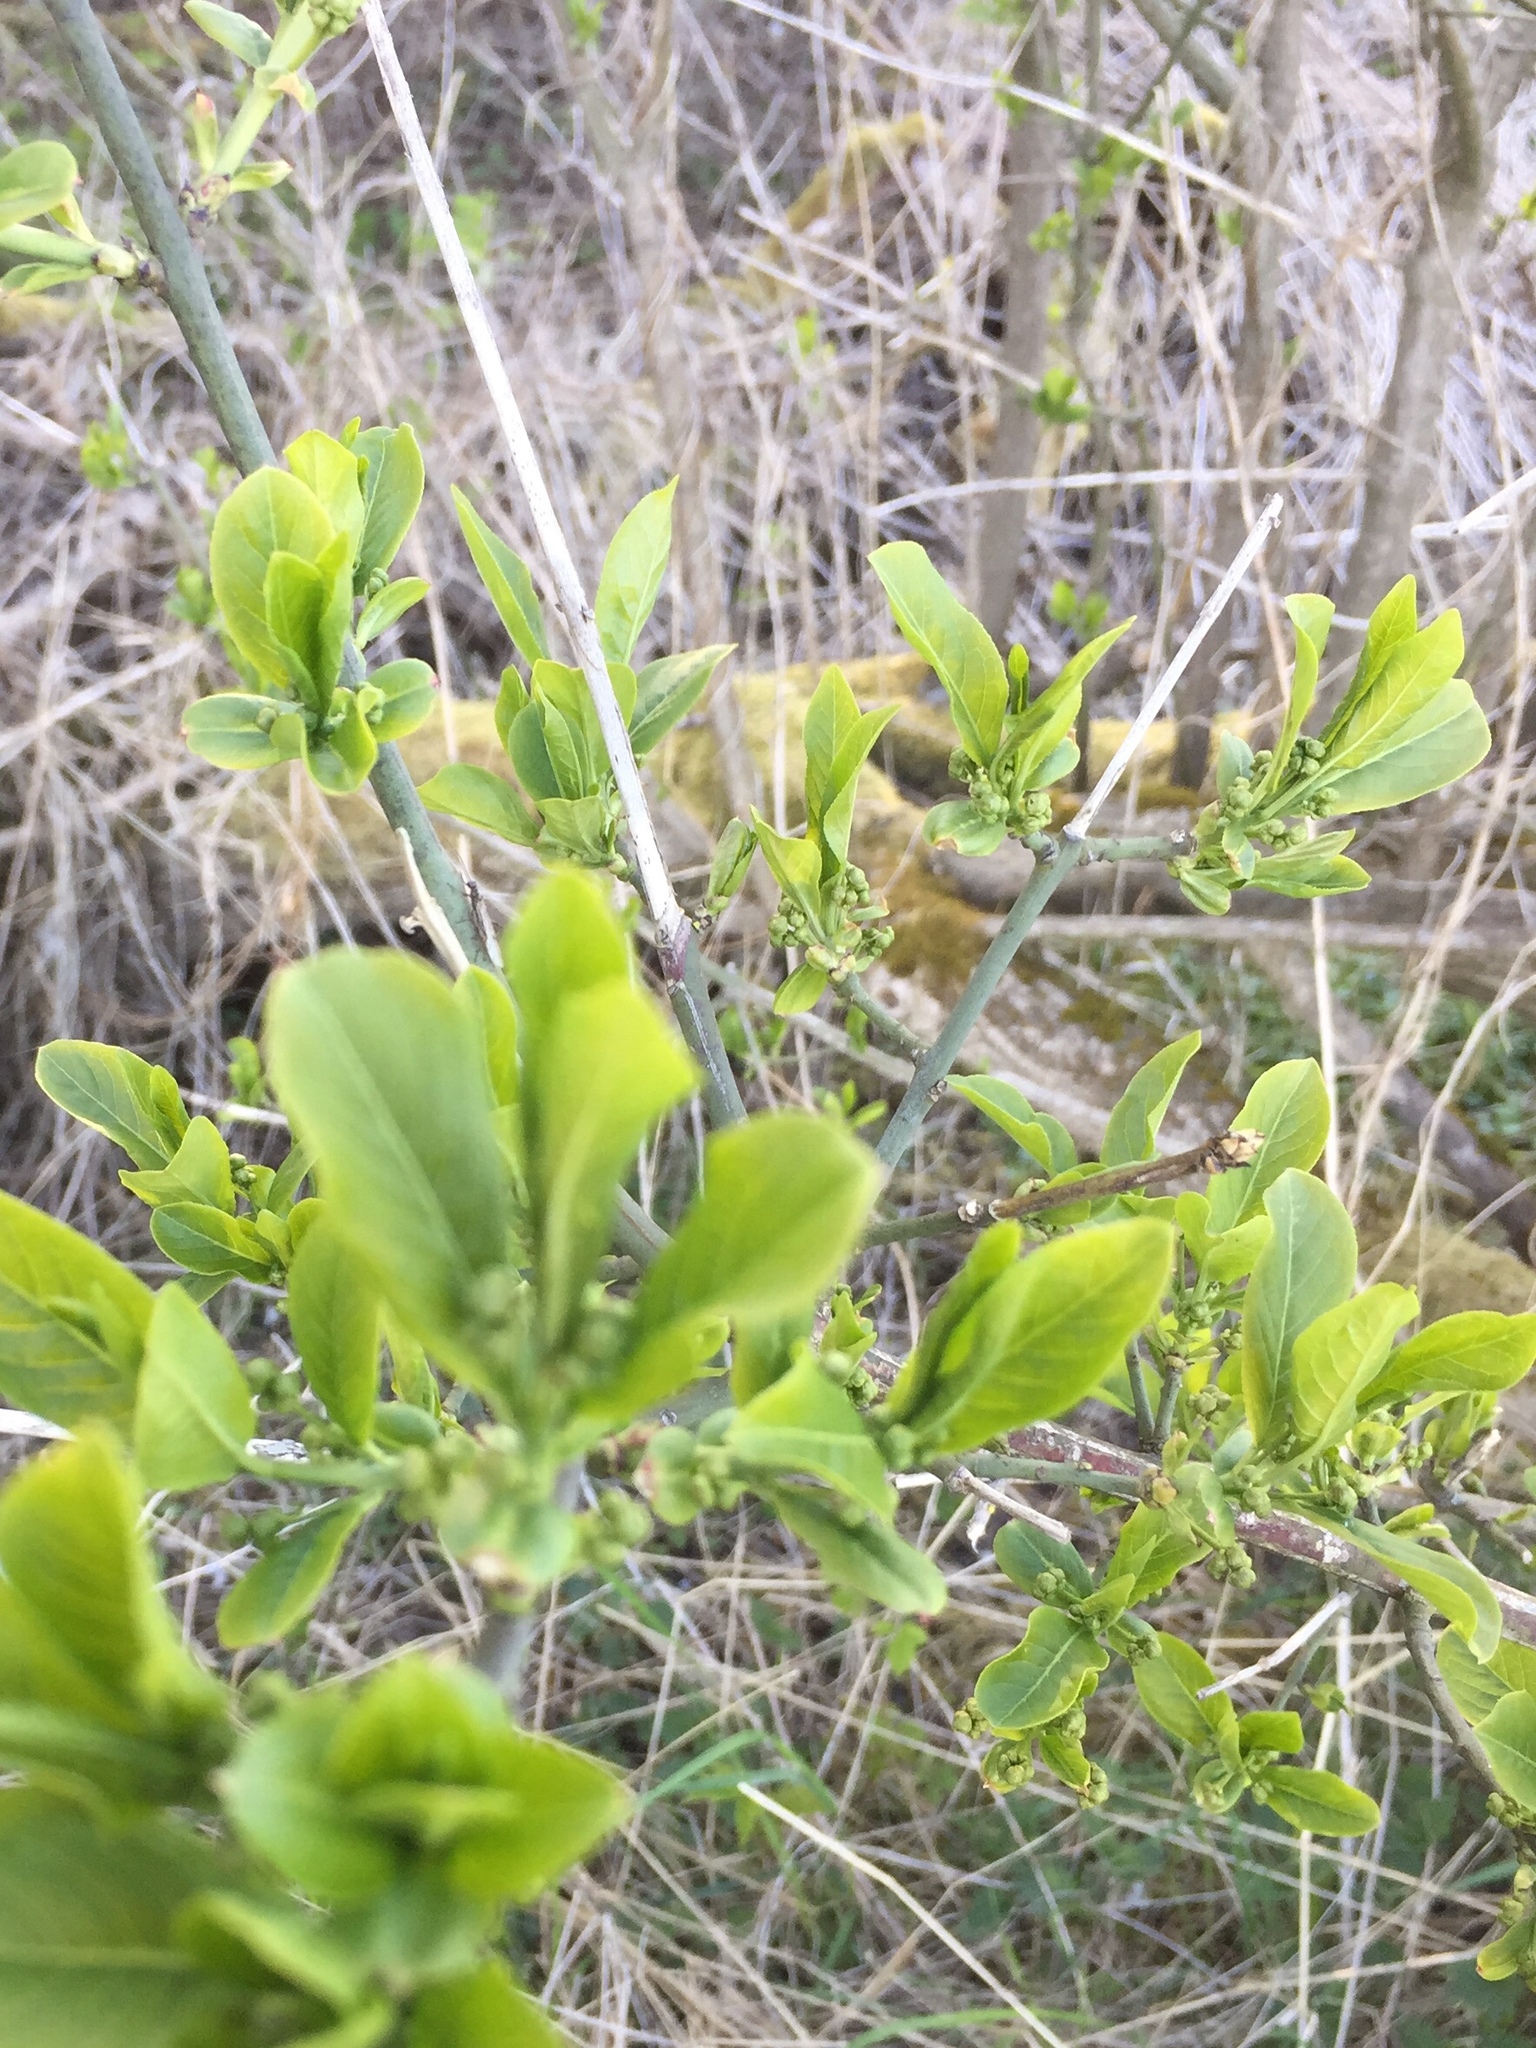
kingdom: Plantae
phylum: Tracheophyta
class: Magnoliopsida
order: Celastrales
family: Celastraceae
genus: Euonymus
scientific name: Euonymus europaeus
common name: Spindle
